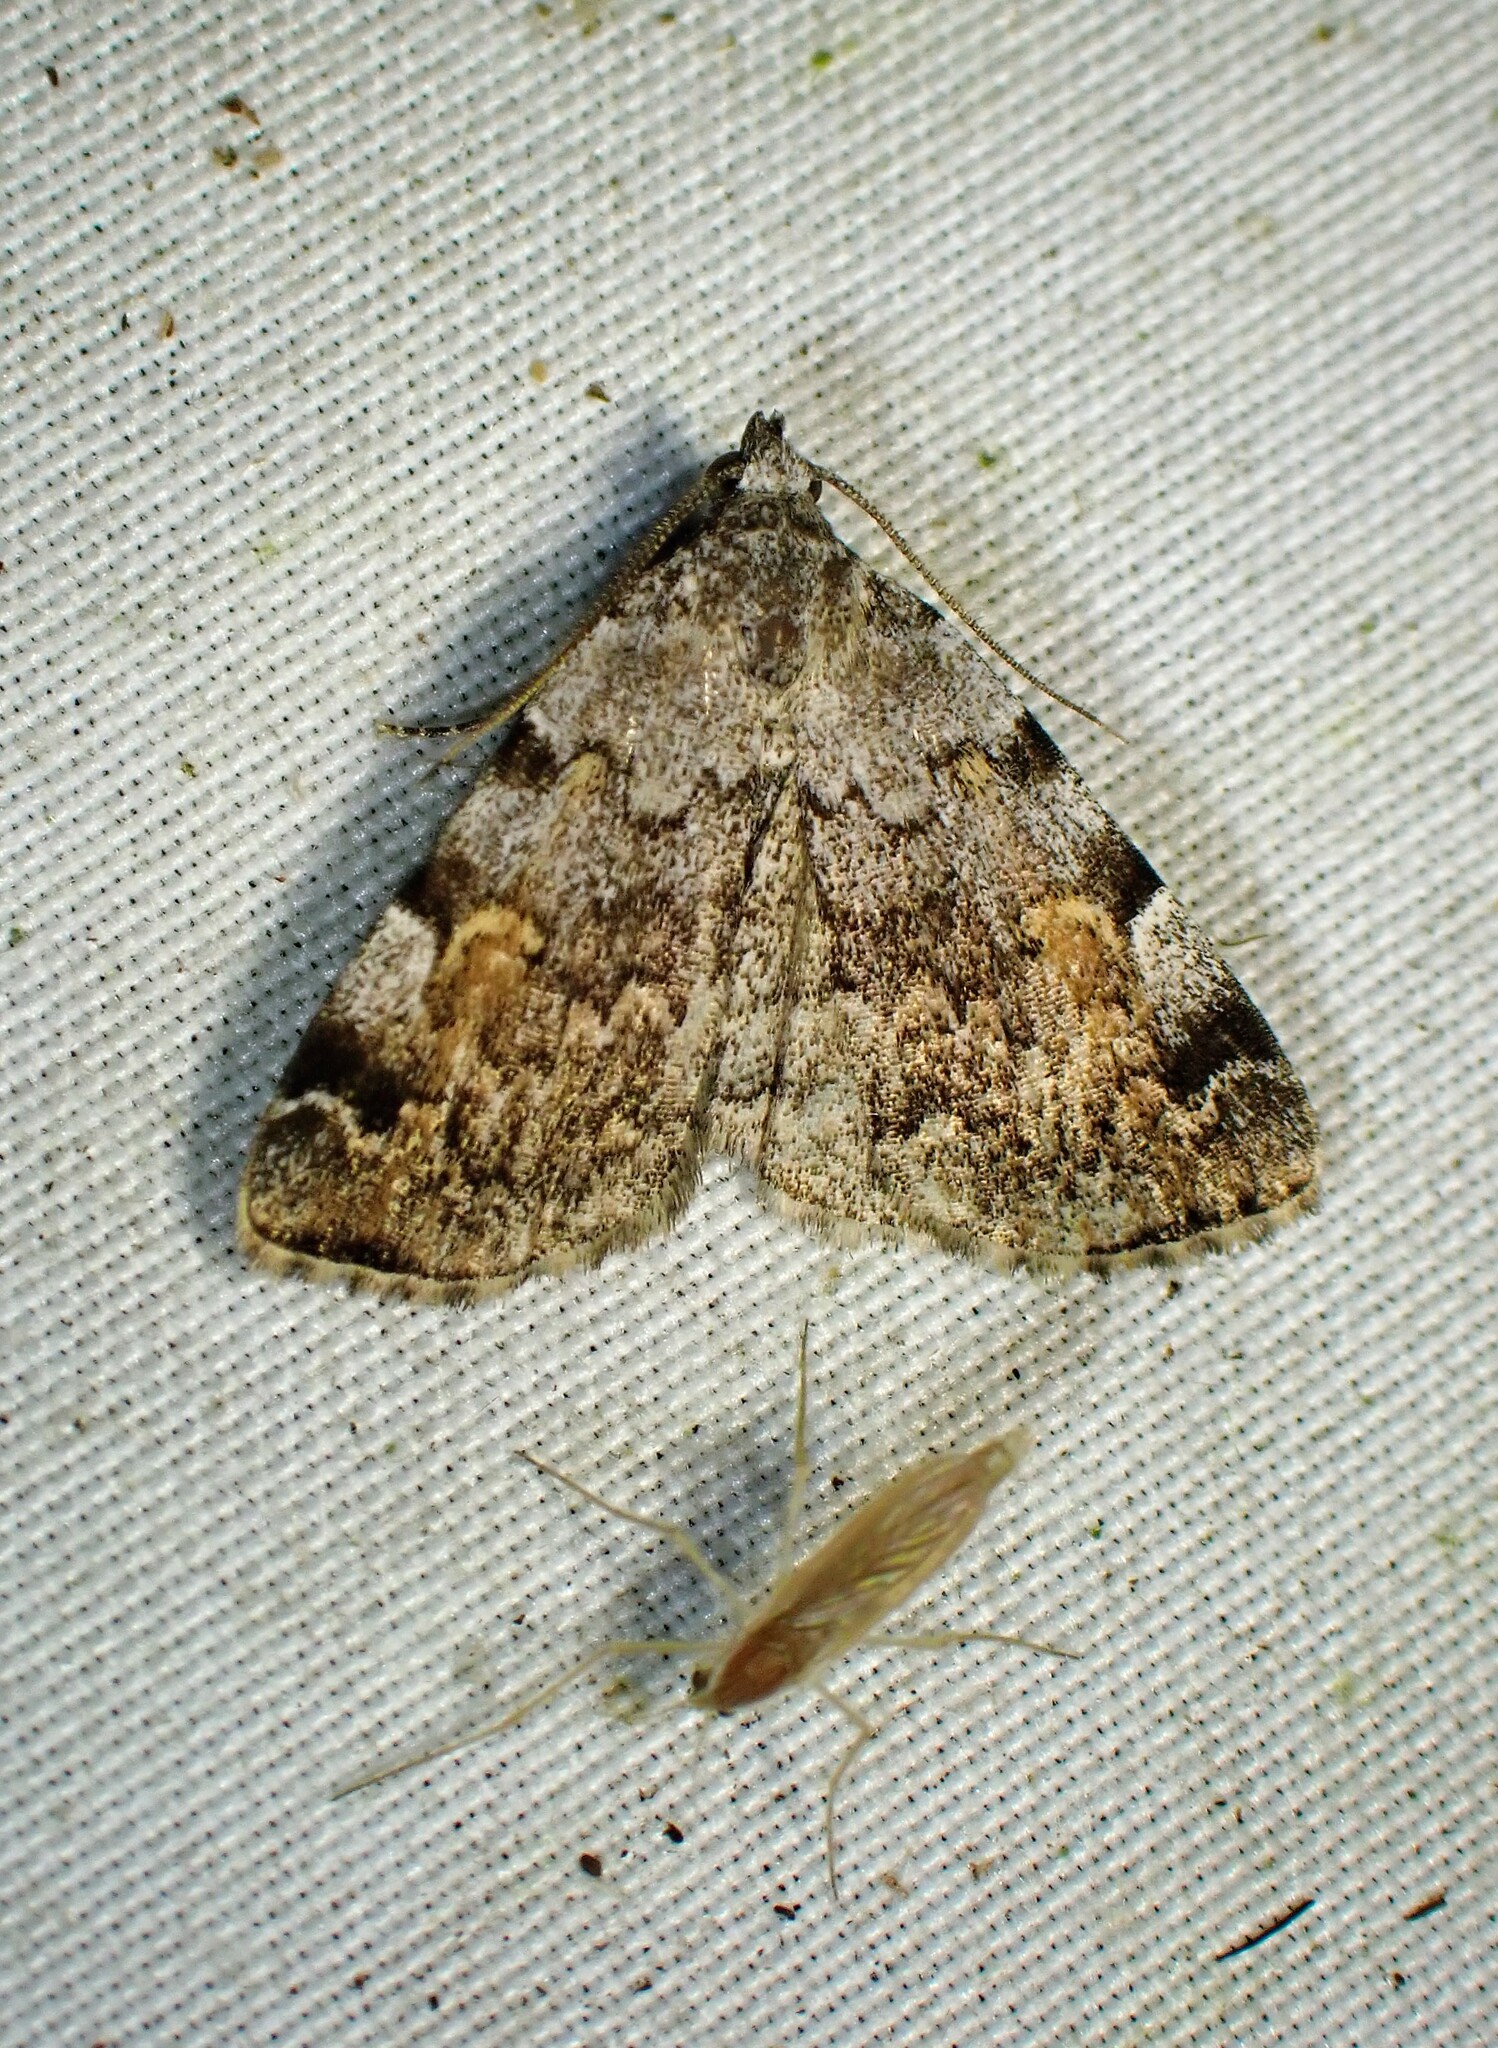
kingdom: Animalia
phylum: Arthropoda
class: Insecta
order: Lepidoptera
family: Erebidae
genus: Idia
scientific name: Idia americalis
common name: American idia moth
